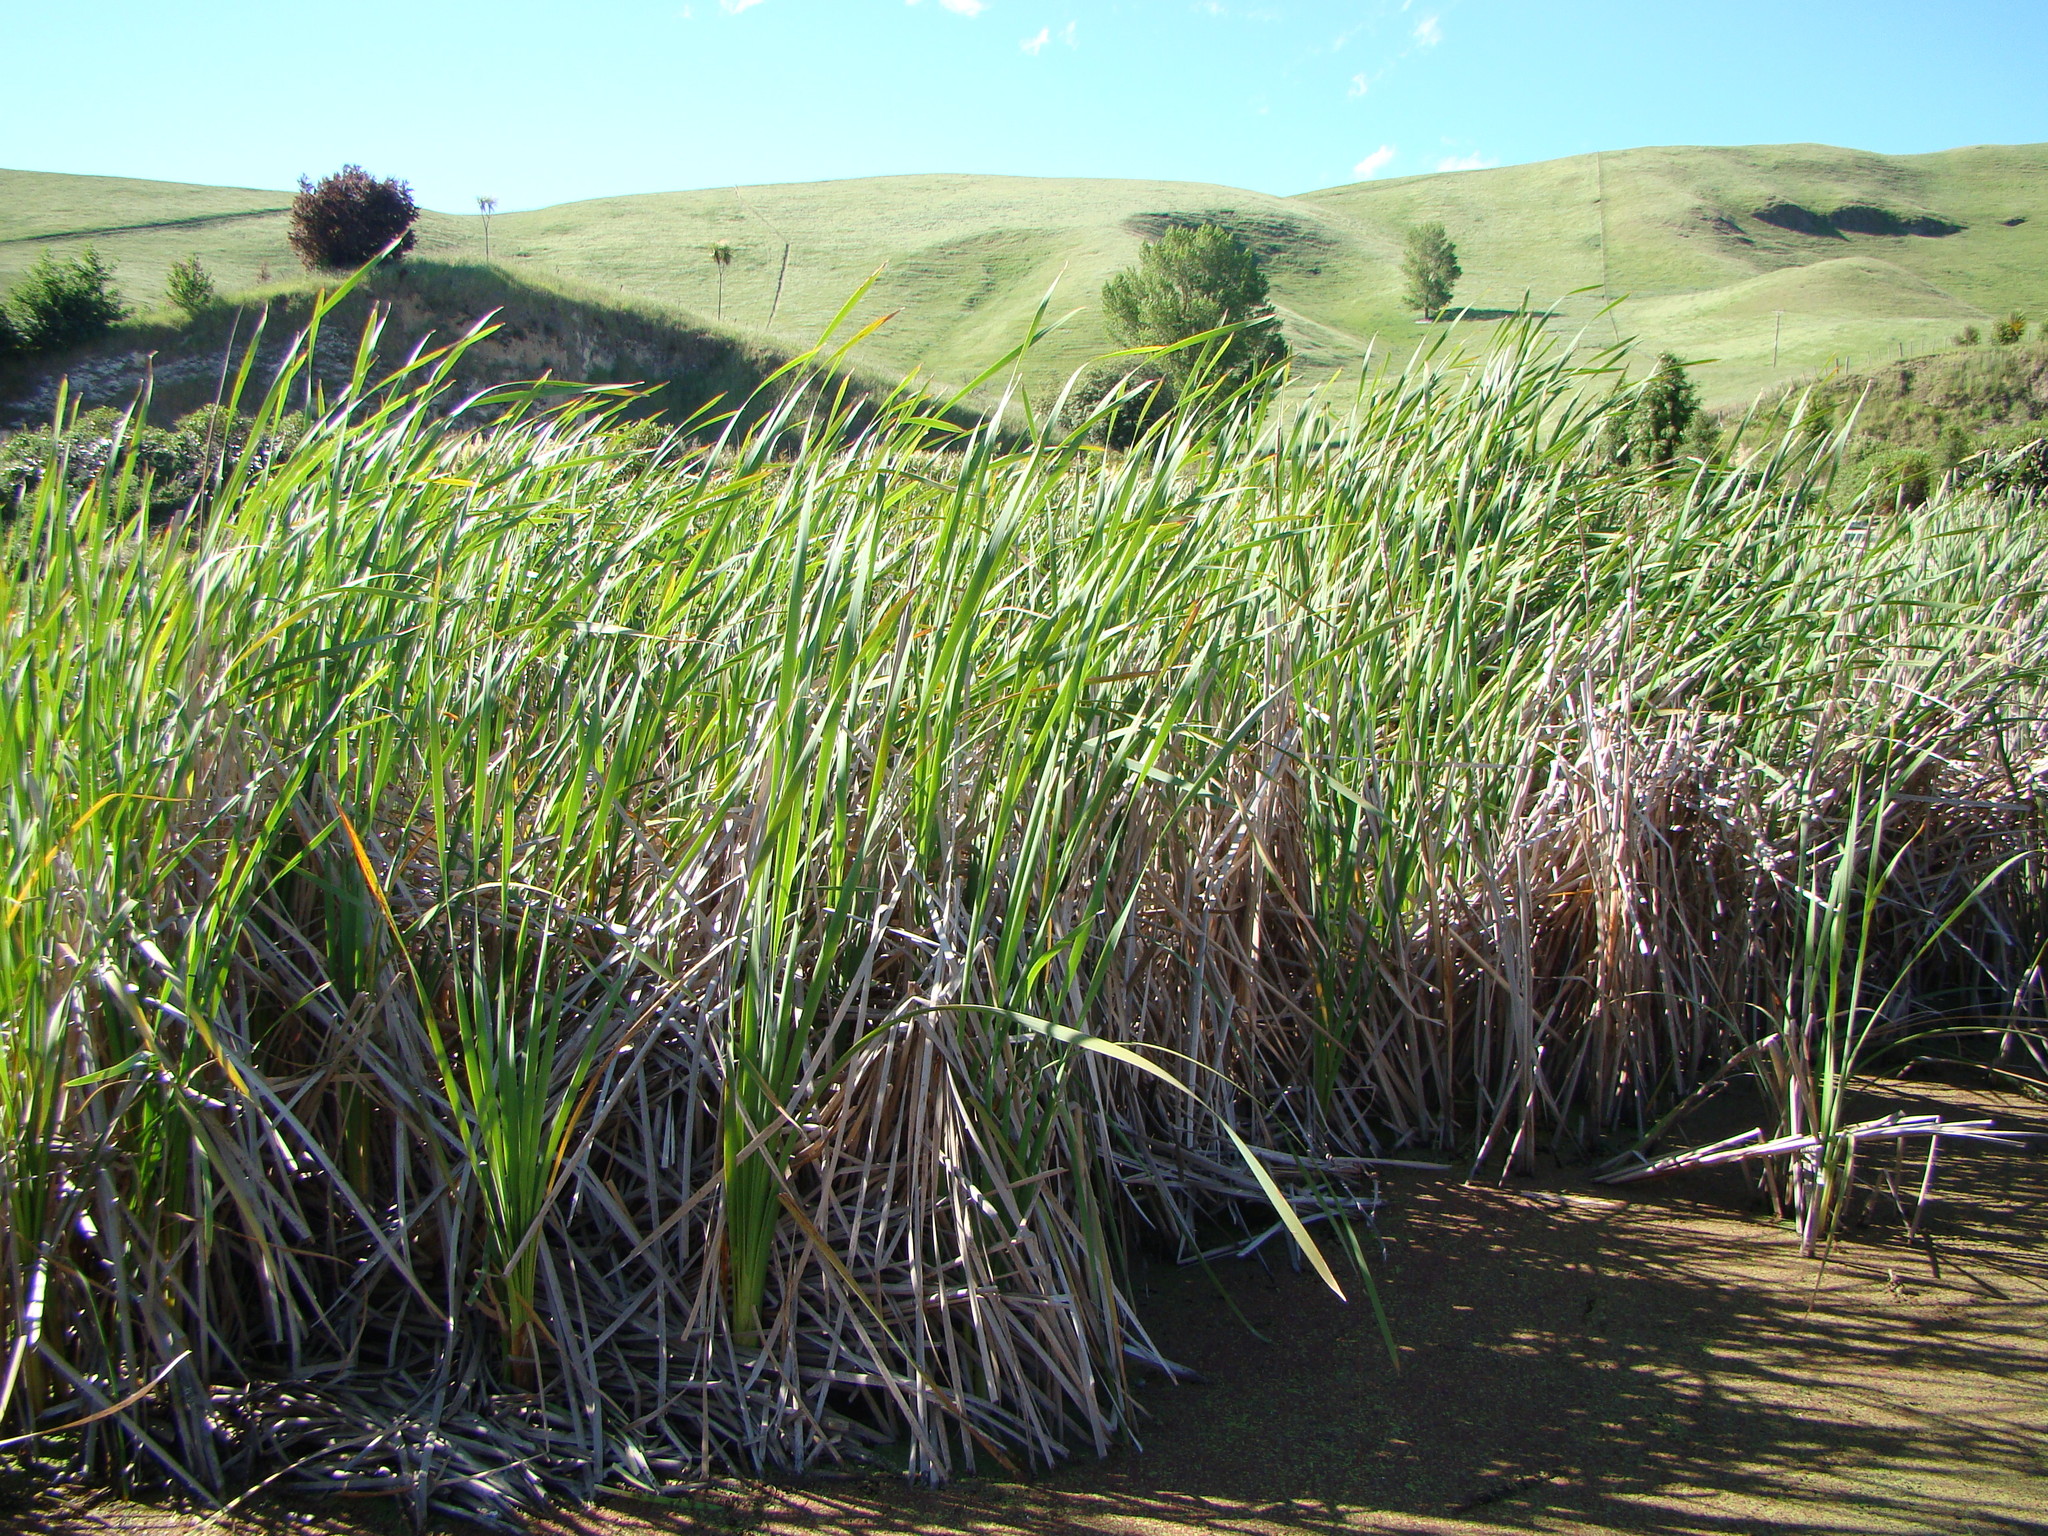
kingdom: Plantae
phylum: Tracheophyta
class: Liliopsida
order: Poales
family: Typhaceae
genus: Typha
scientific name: Typha orientalis
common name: Bullrush
